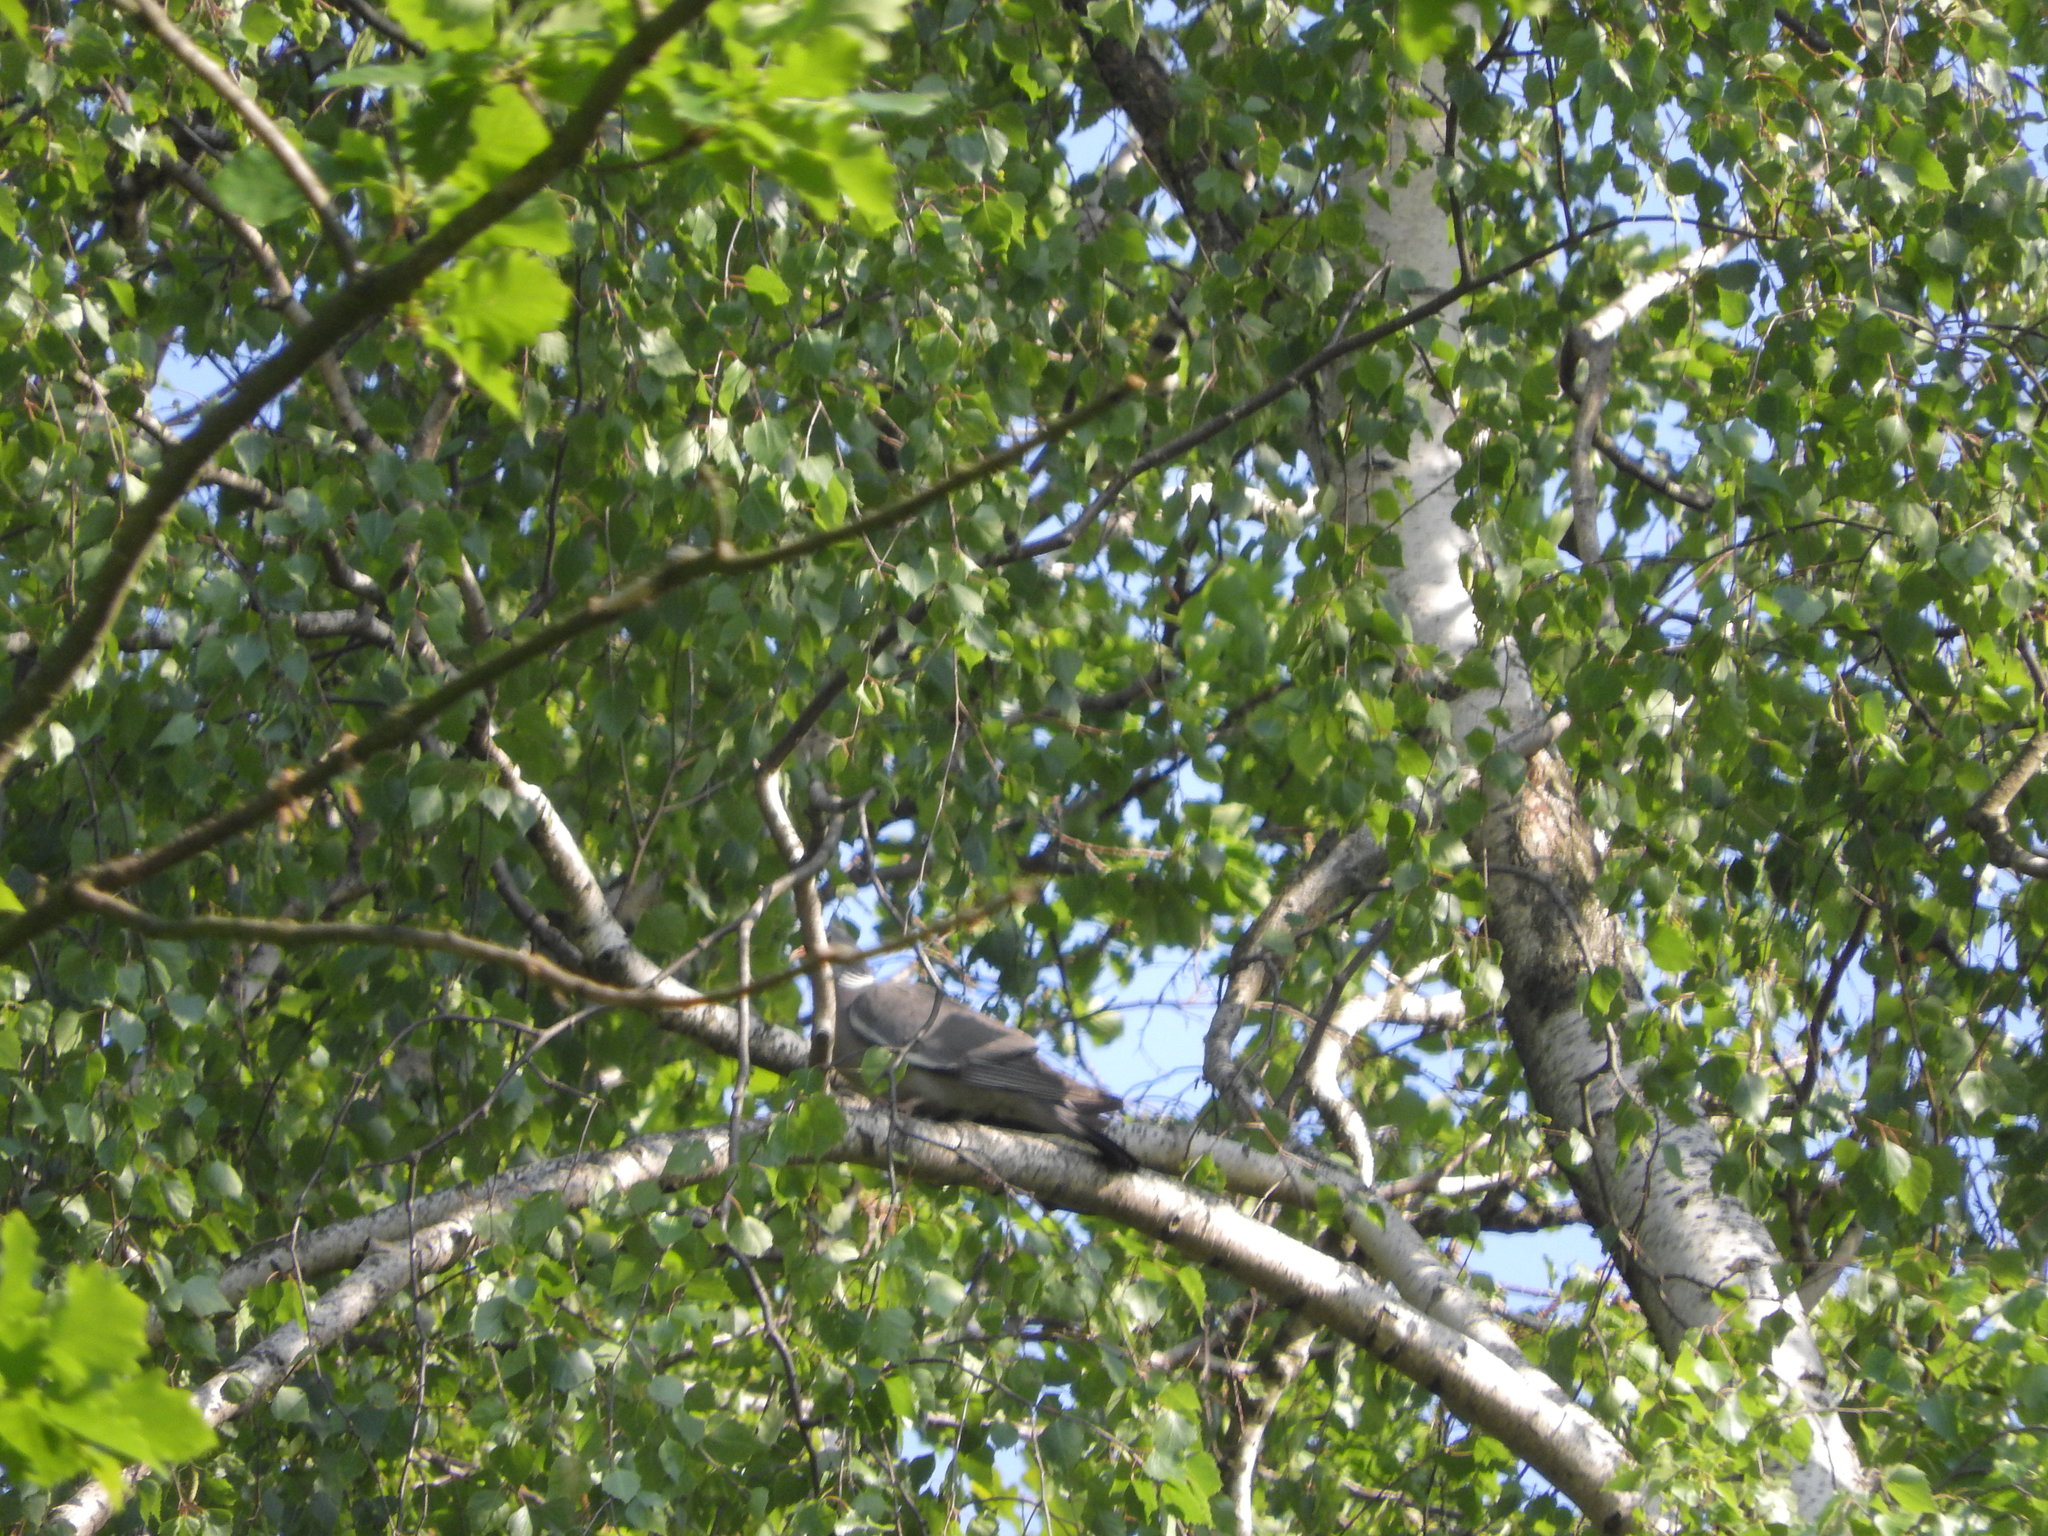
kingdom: Animalia
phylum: Chordata
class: Aves
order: Columbiformes
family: Columbidae
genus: Columba
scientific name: Columba palumbus
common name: Common wood pigeon
